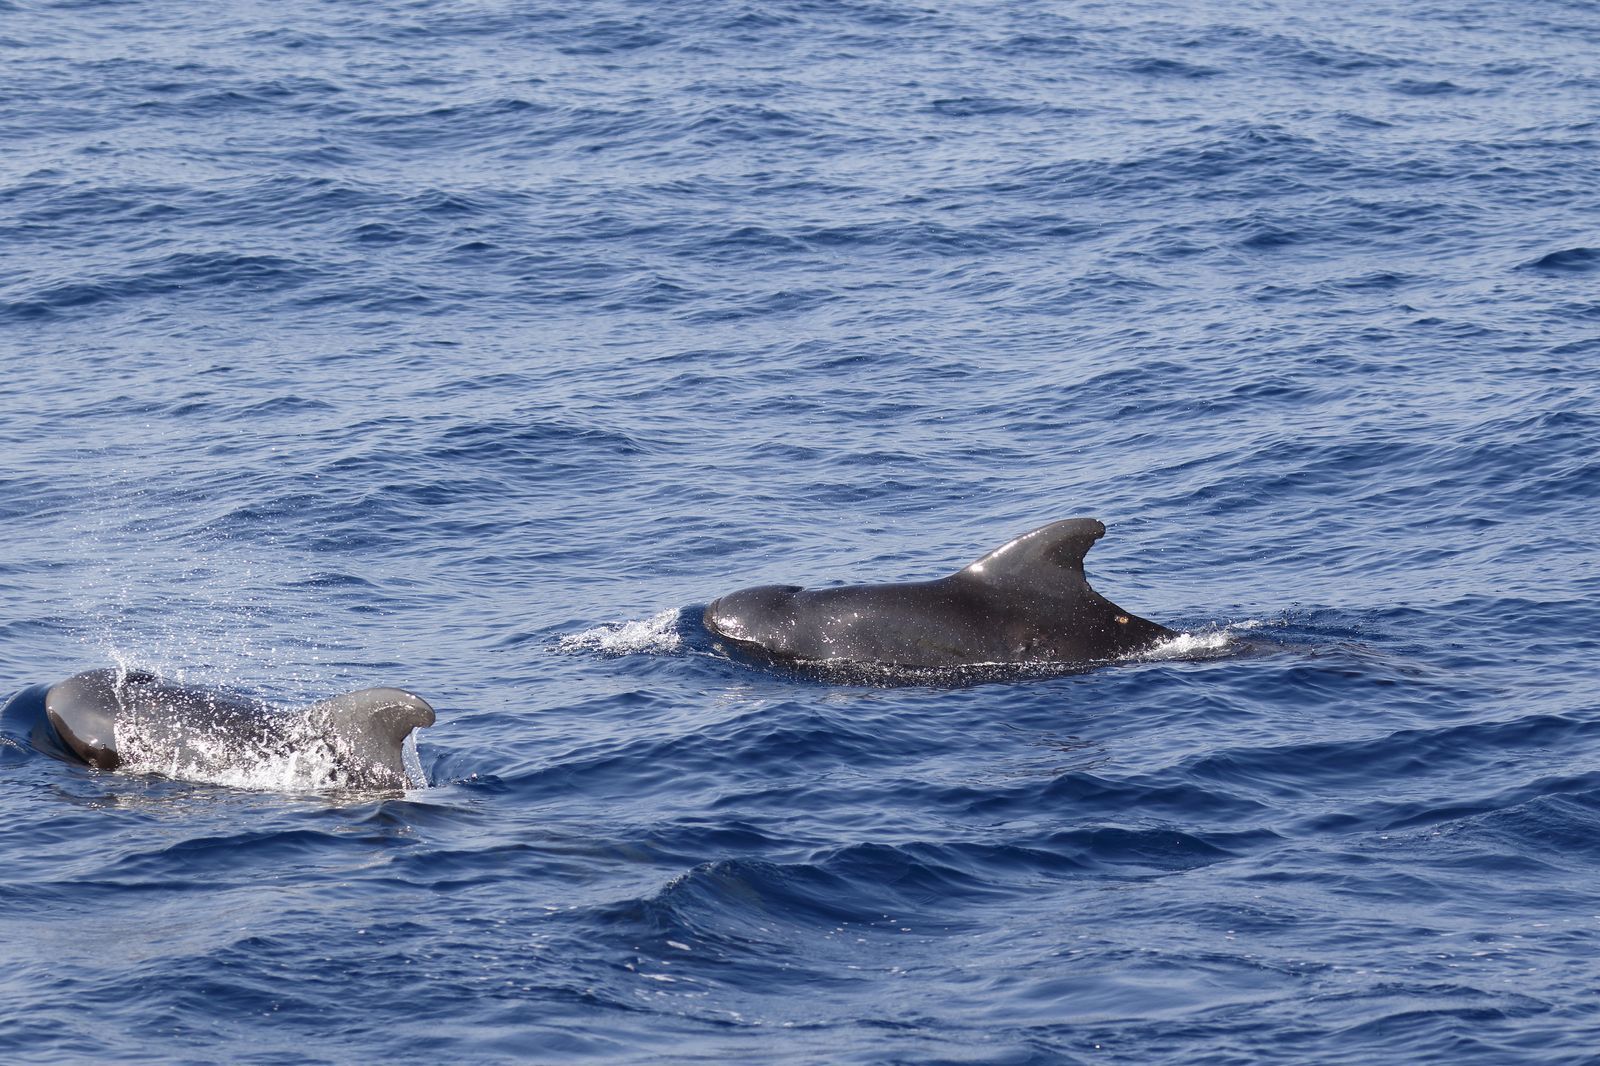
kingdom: Animalia
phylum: Chordata
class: Mammalia
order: Cetacea
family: Delphinidae
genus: Globicephala
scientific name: Globicephala macrorhynchus
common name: Short-finned pilot whale
